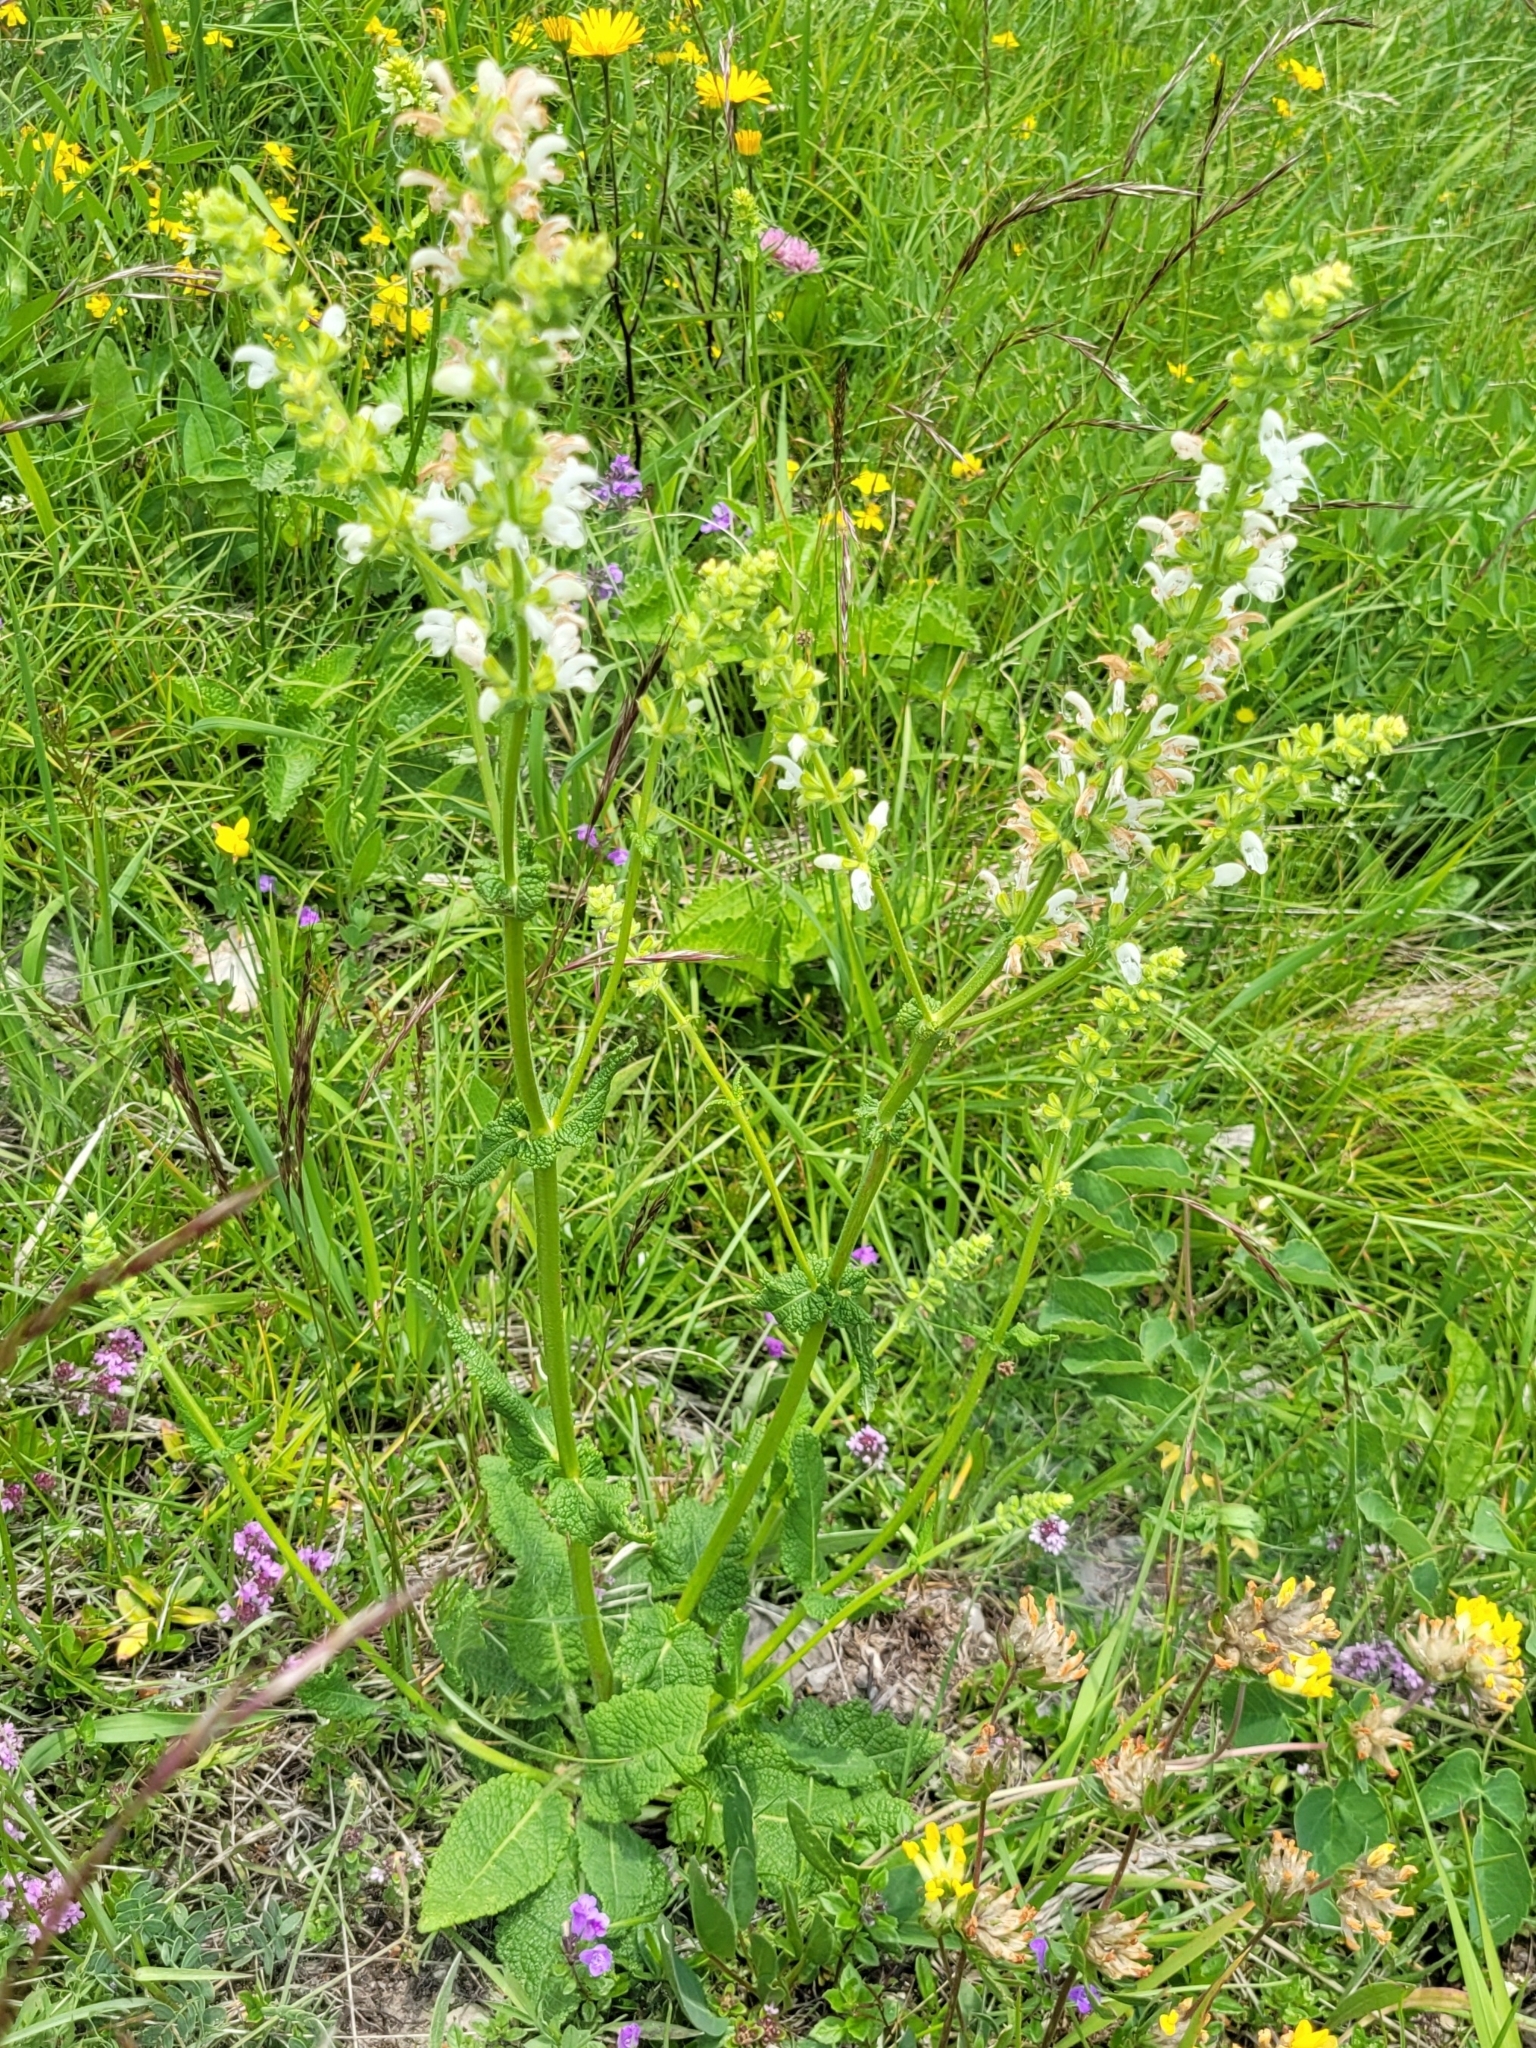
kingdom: Plantae
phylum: Tracheophyta
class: Magnoliopsida
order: Lamiales
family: Lamiaceae
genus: Salvia
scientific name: Salvia pratensis
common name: Meadow sage
